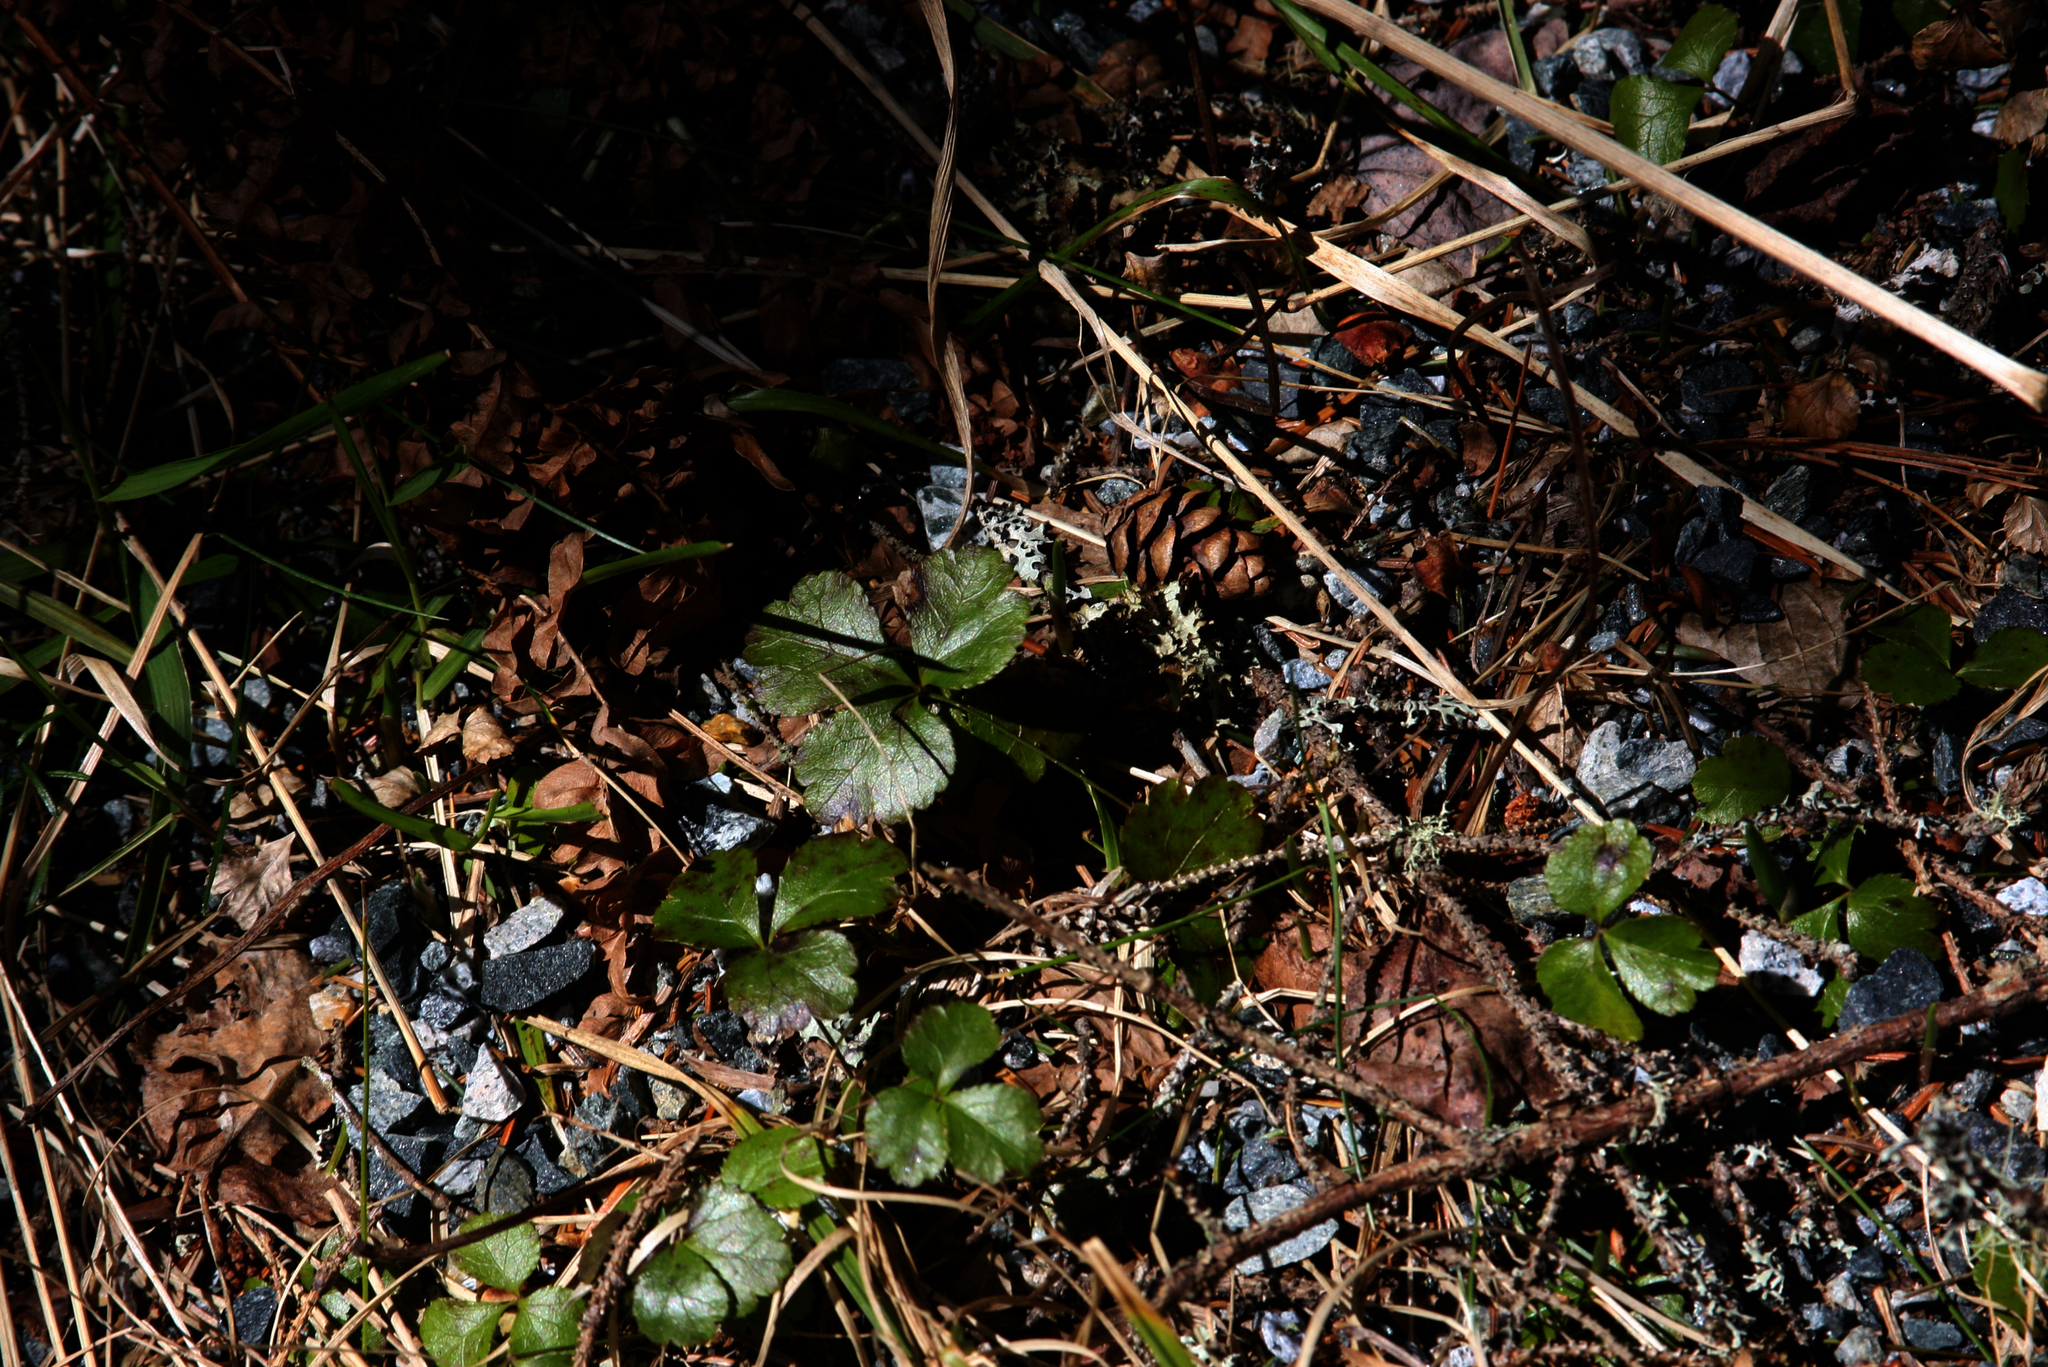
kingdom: Plantae
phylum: Tracheophyta
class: Magnoliopsida
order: Ranunculales
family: Ranunculaceae
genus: Coptis
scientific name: Coptis trifolia
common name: Canker-root
